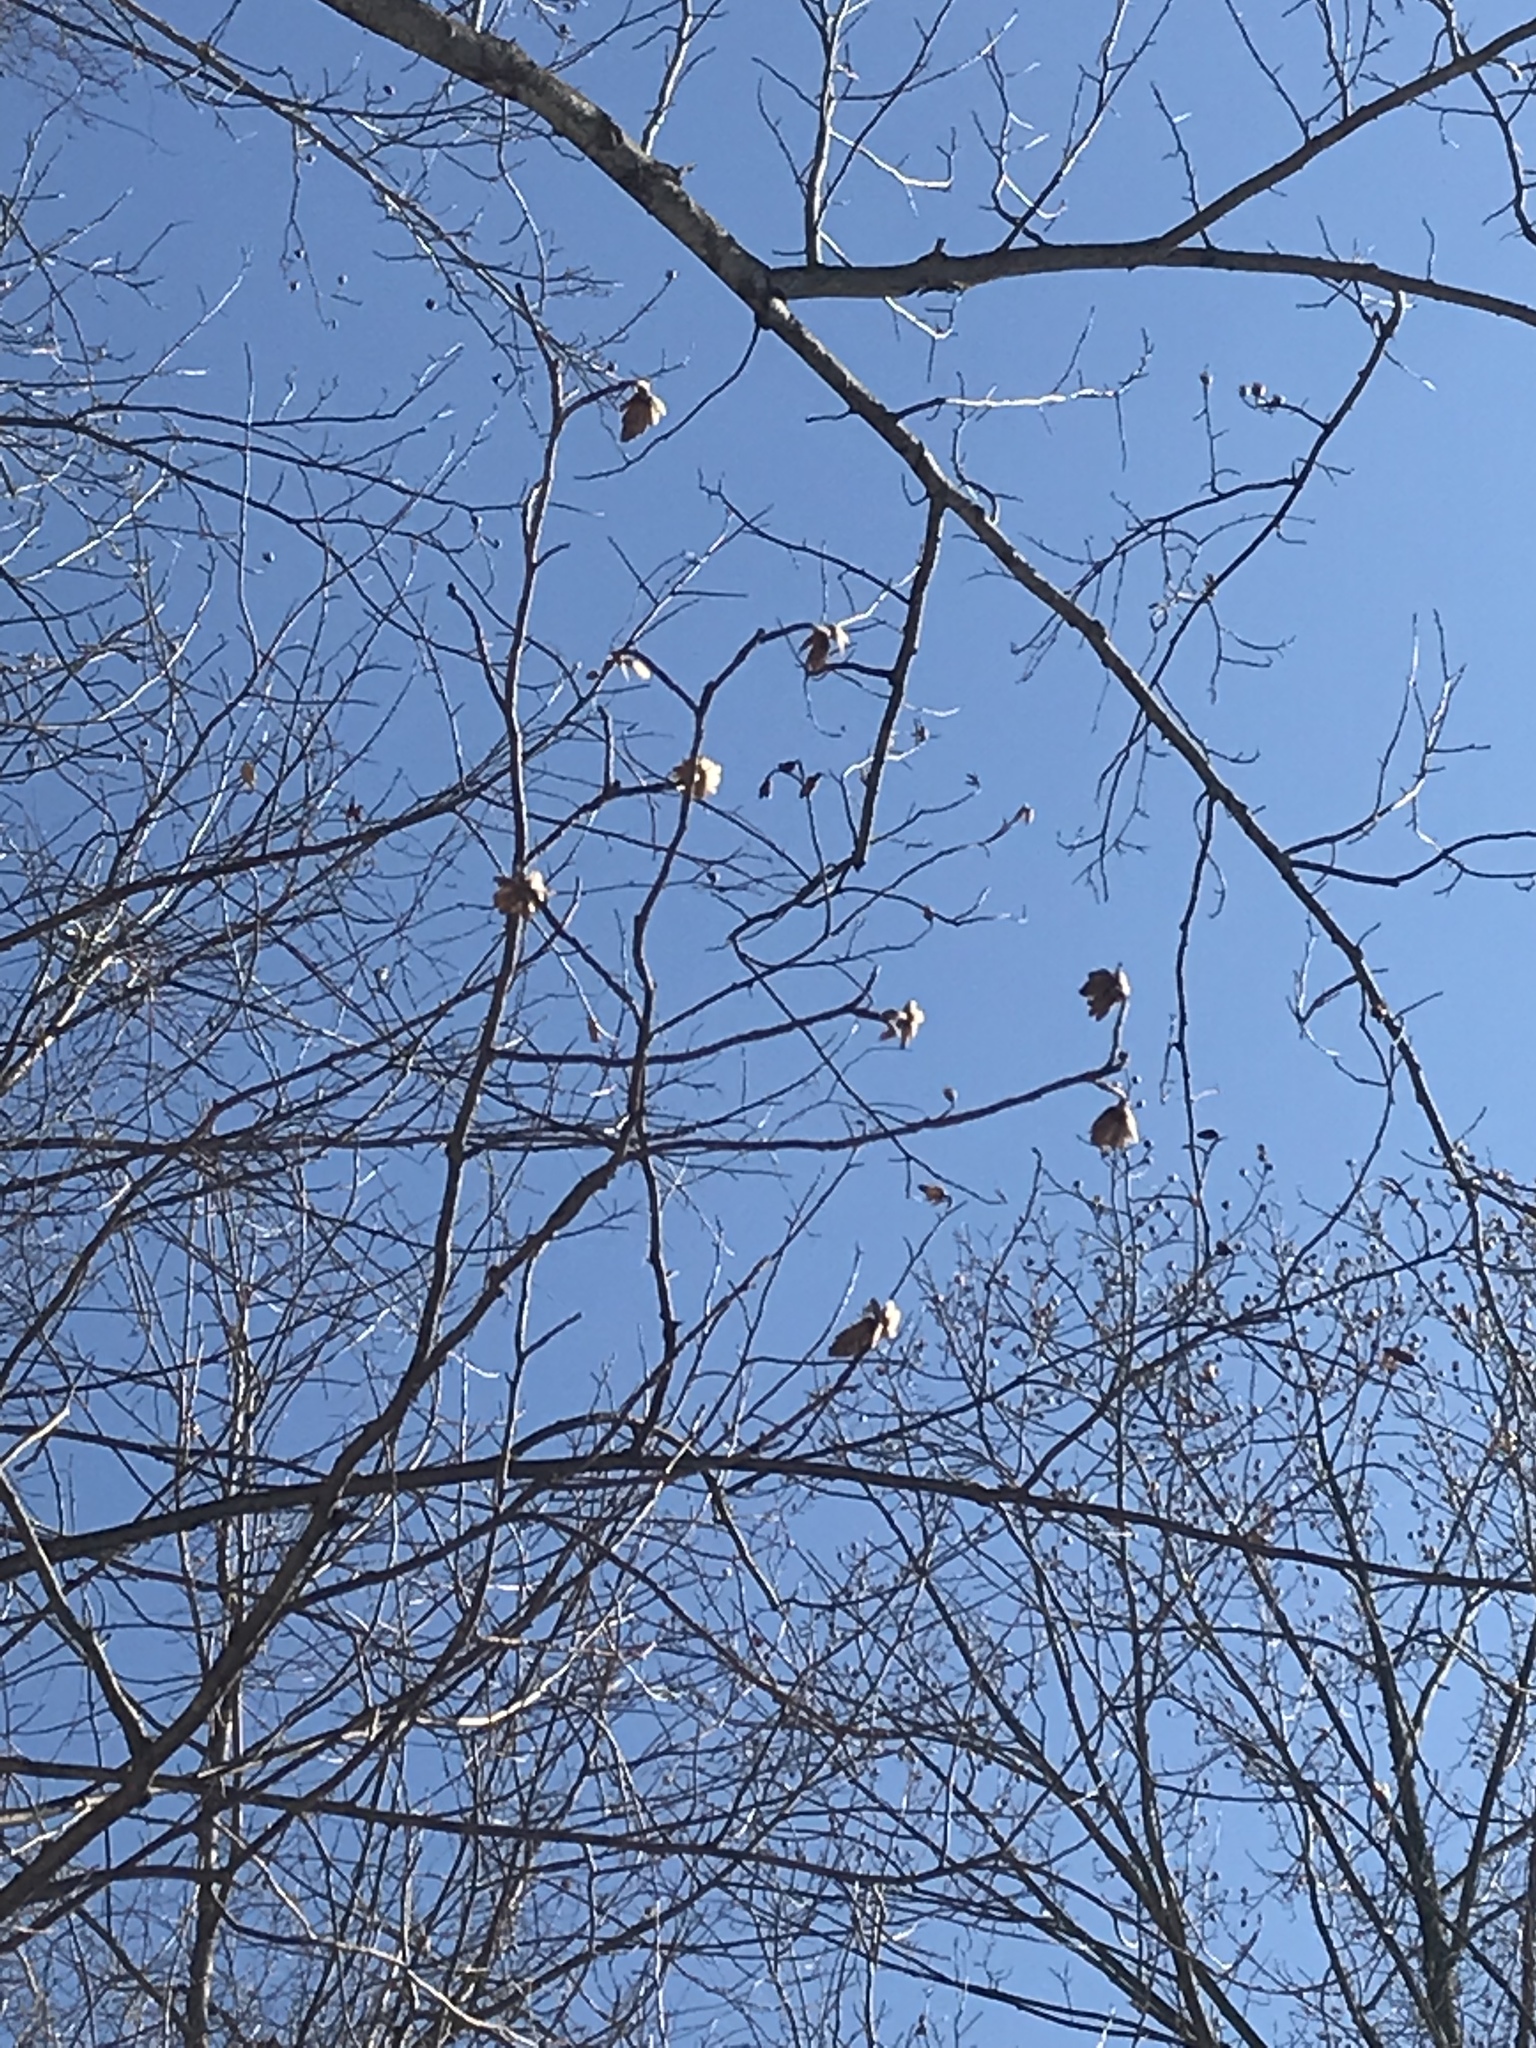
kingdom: Plantae
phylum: Tracheophyta
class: Magnoliopsida
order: Magnoliales
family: Magnoliaceae
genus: Liriodendron
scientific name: Liriodendron tulipifera
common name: Tulip tree
